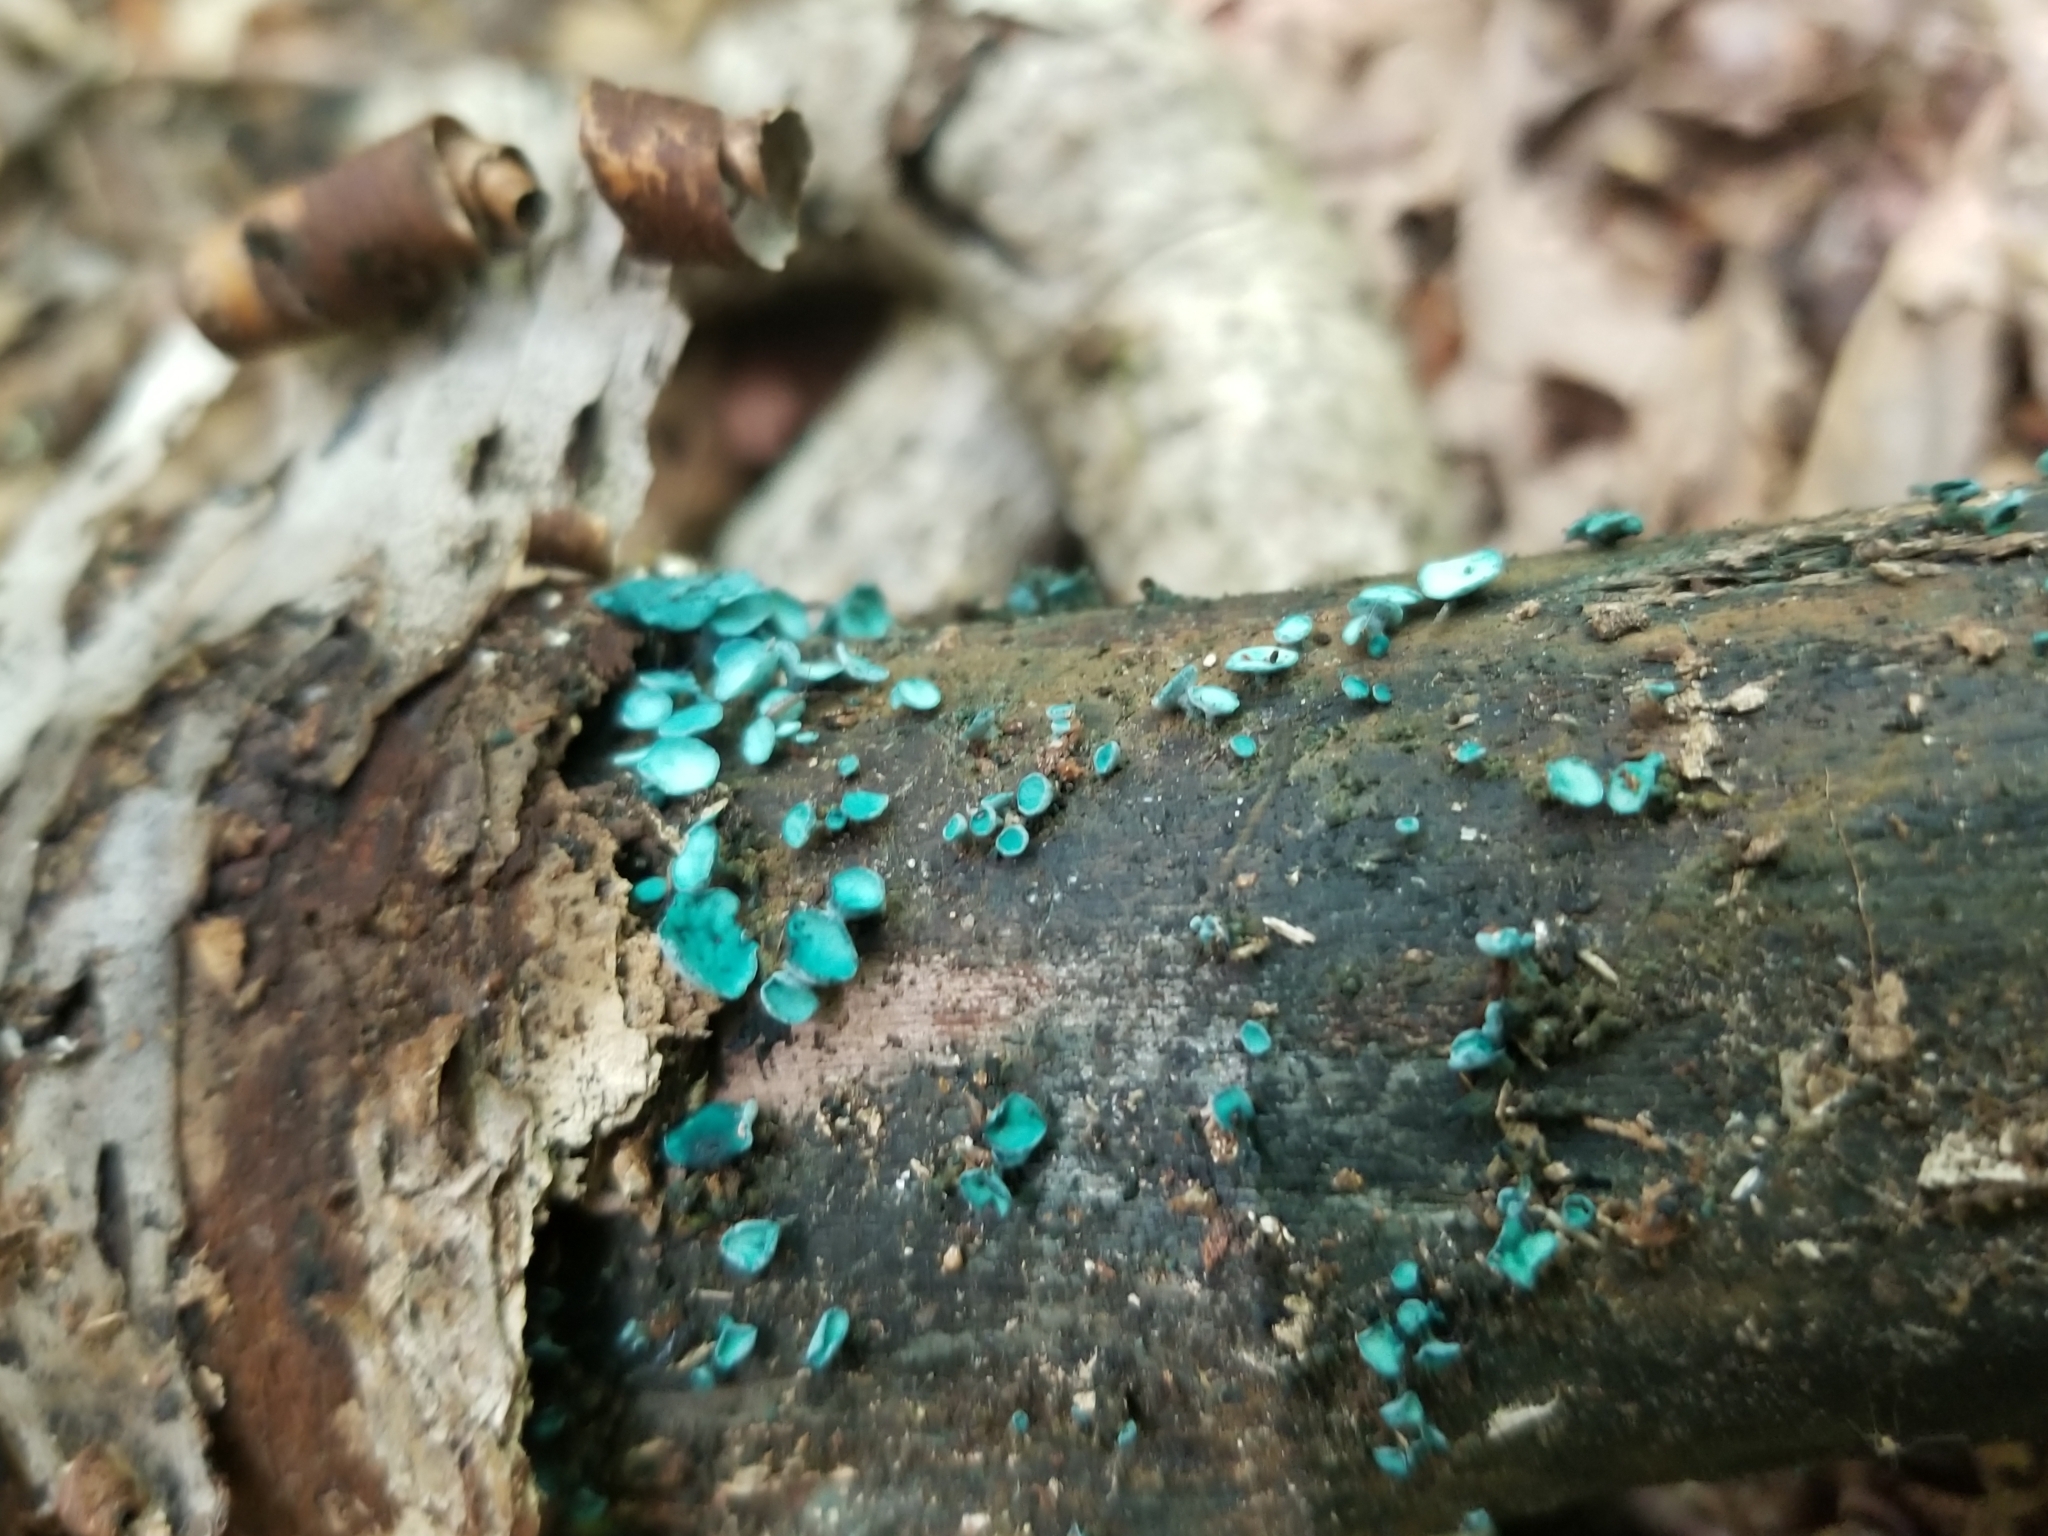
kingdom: Fungi
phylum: Ascomycota
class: Leotiomycetes
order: Helotiales
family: Chlorociboriaceae
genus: Chlorociboria
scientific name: Chlorociboria aeruginascens
